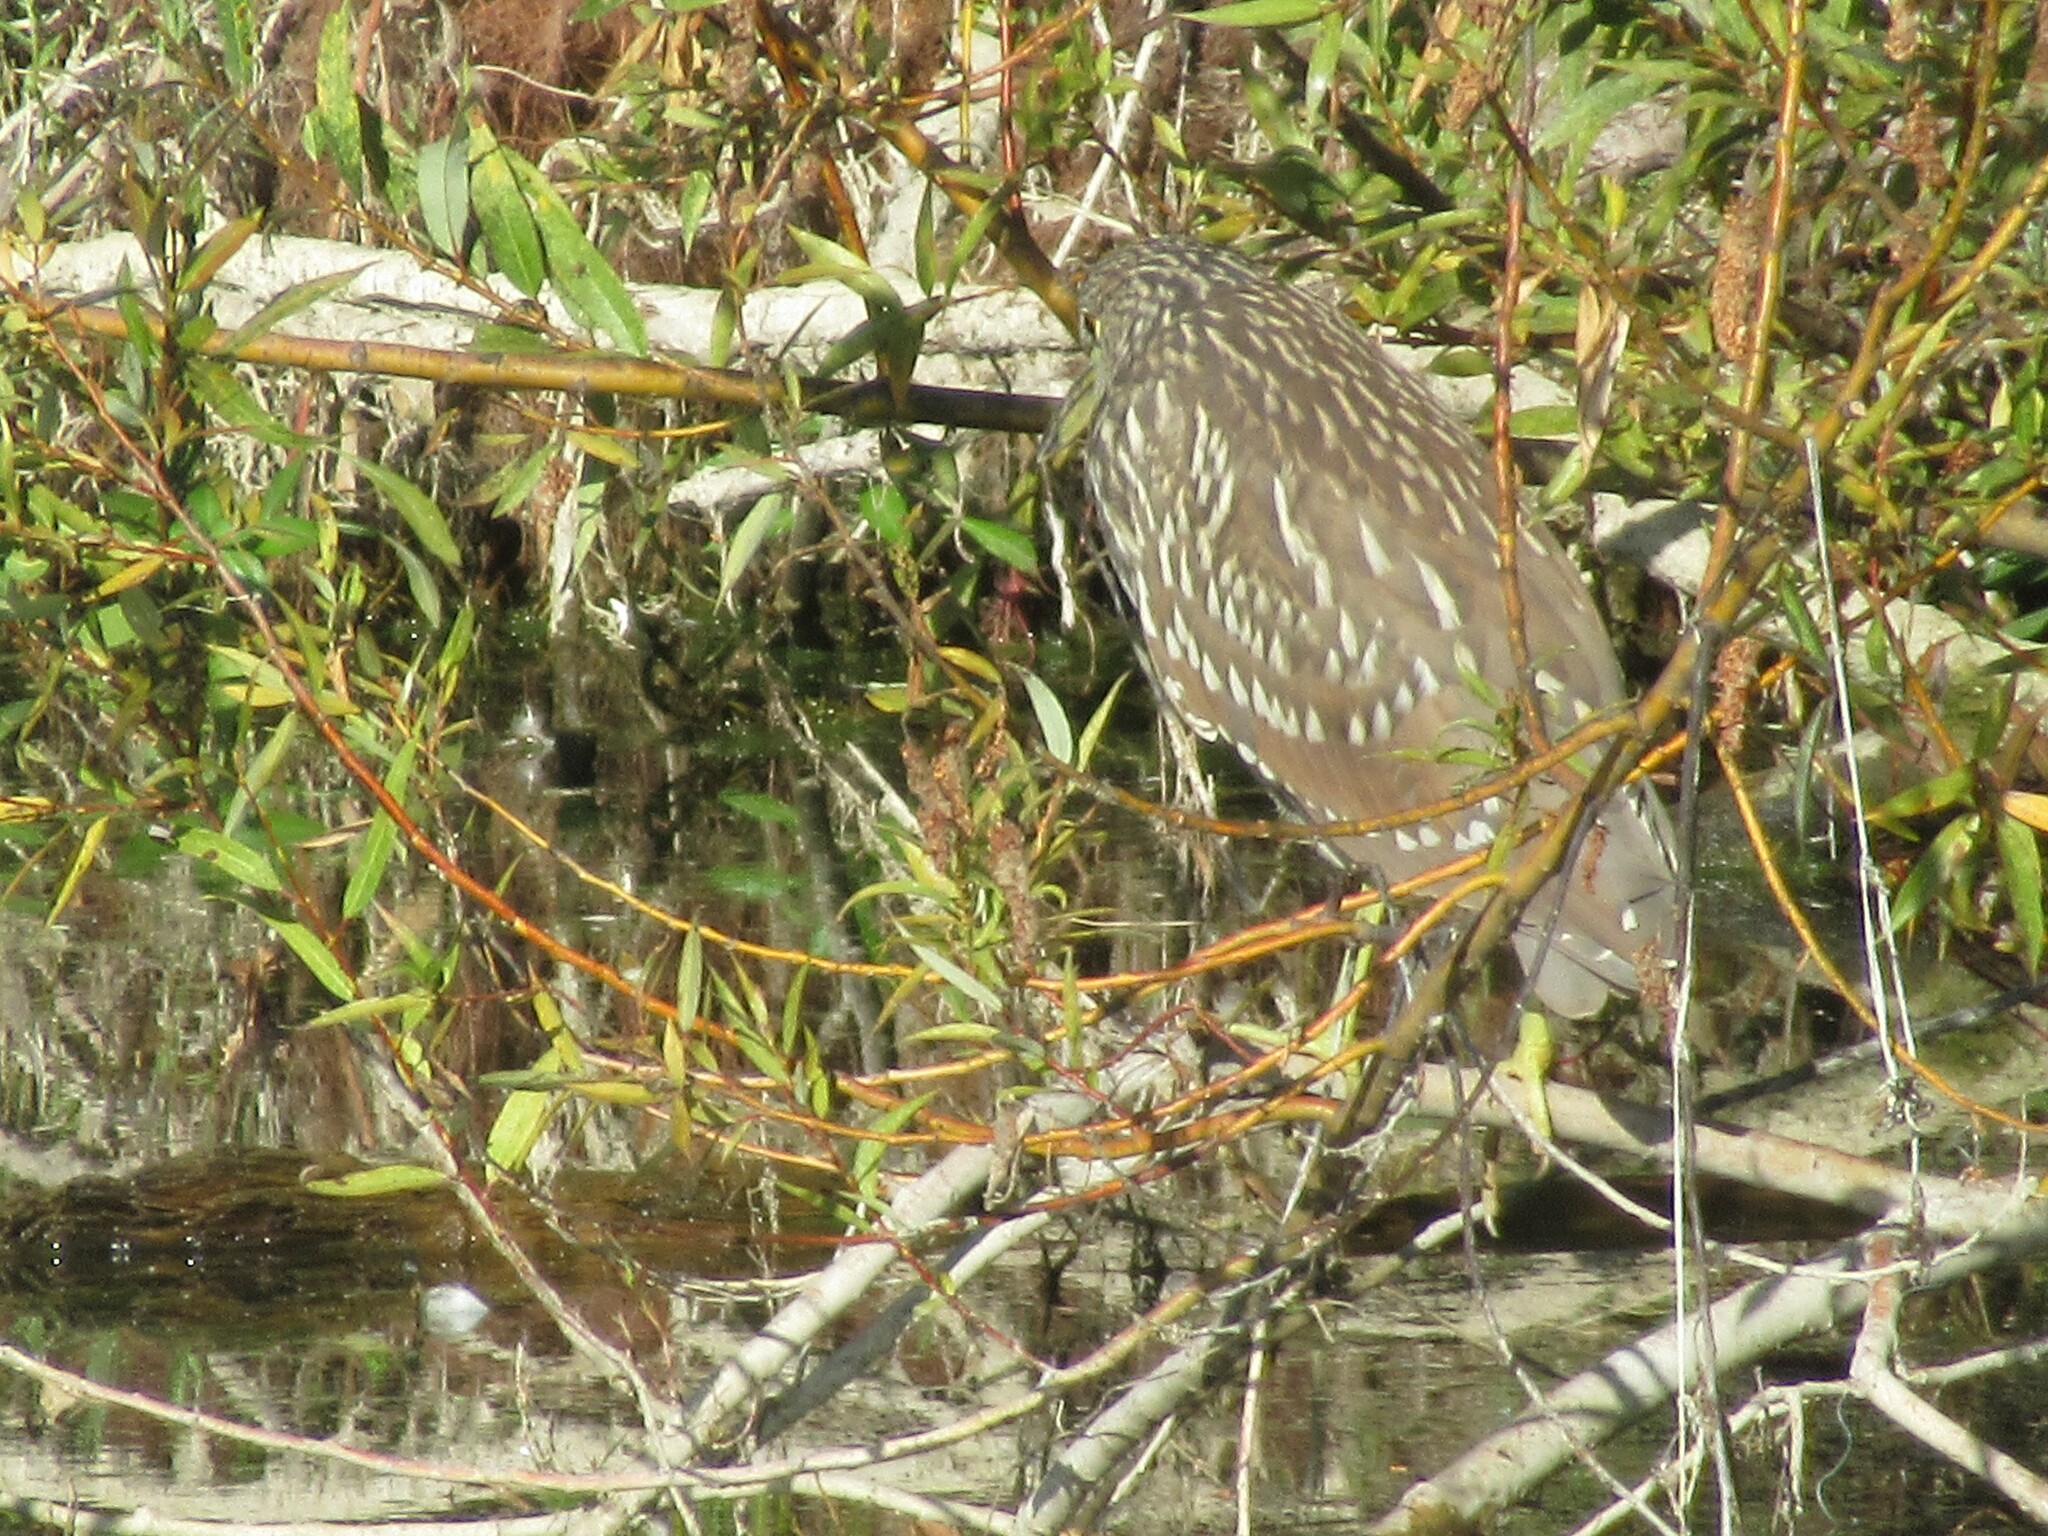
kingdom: Animalia
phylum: Chordata
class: Aves
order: Pelecaniformes
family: Ardeidae
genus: Nycticorax
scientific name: Nycticorax nycticorax
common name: Black-crowned night heron
